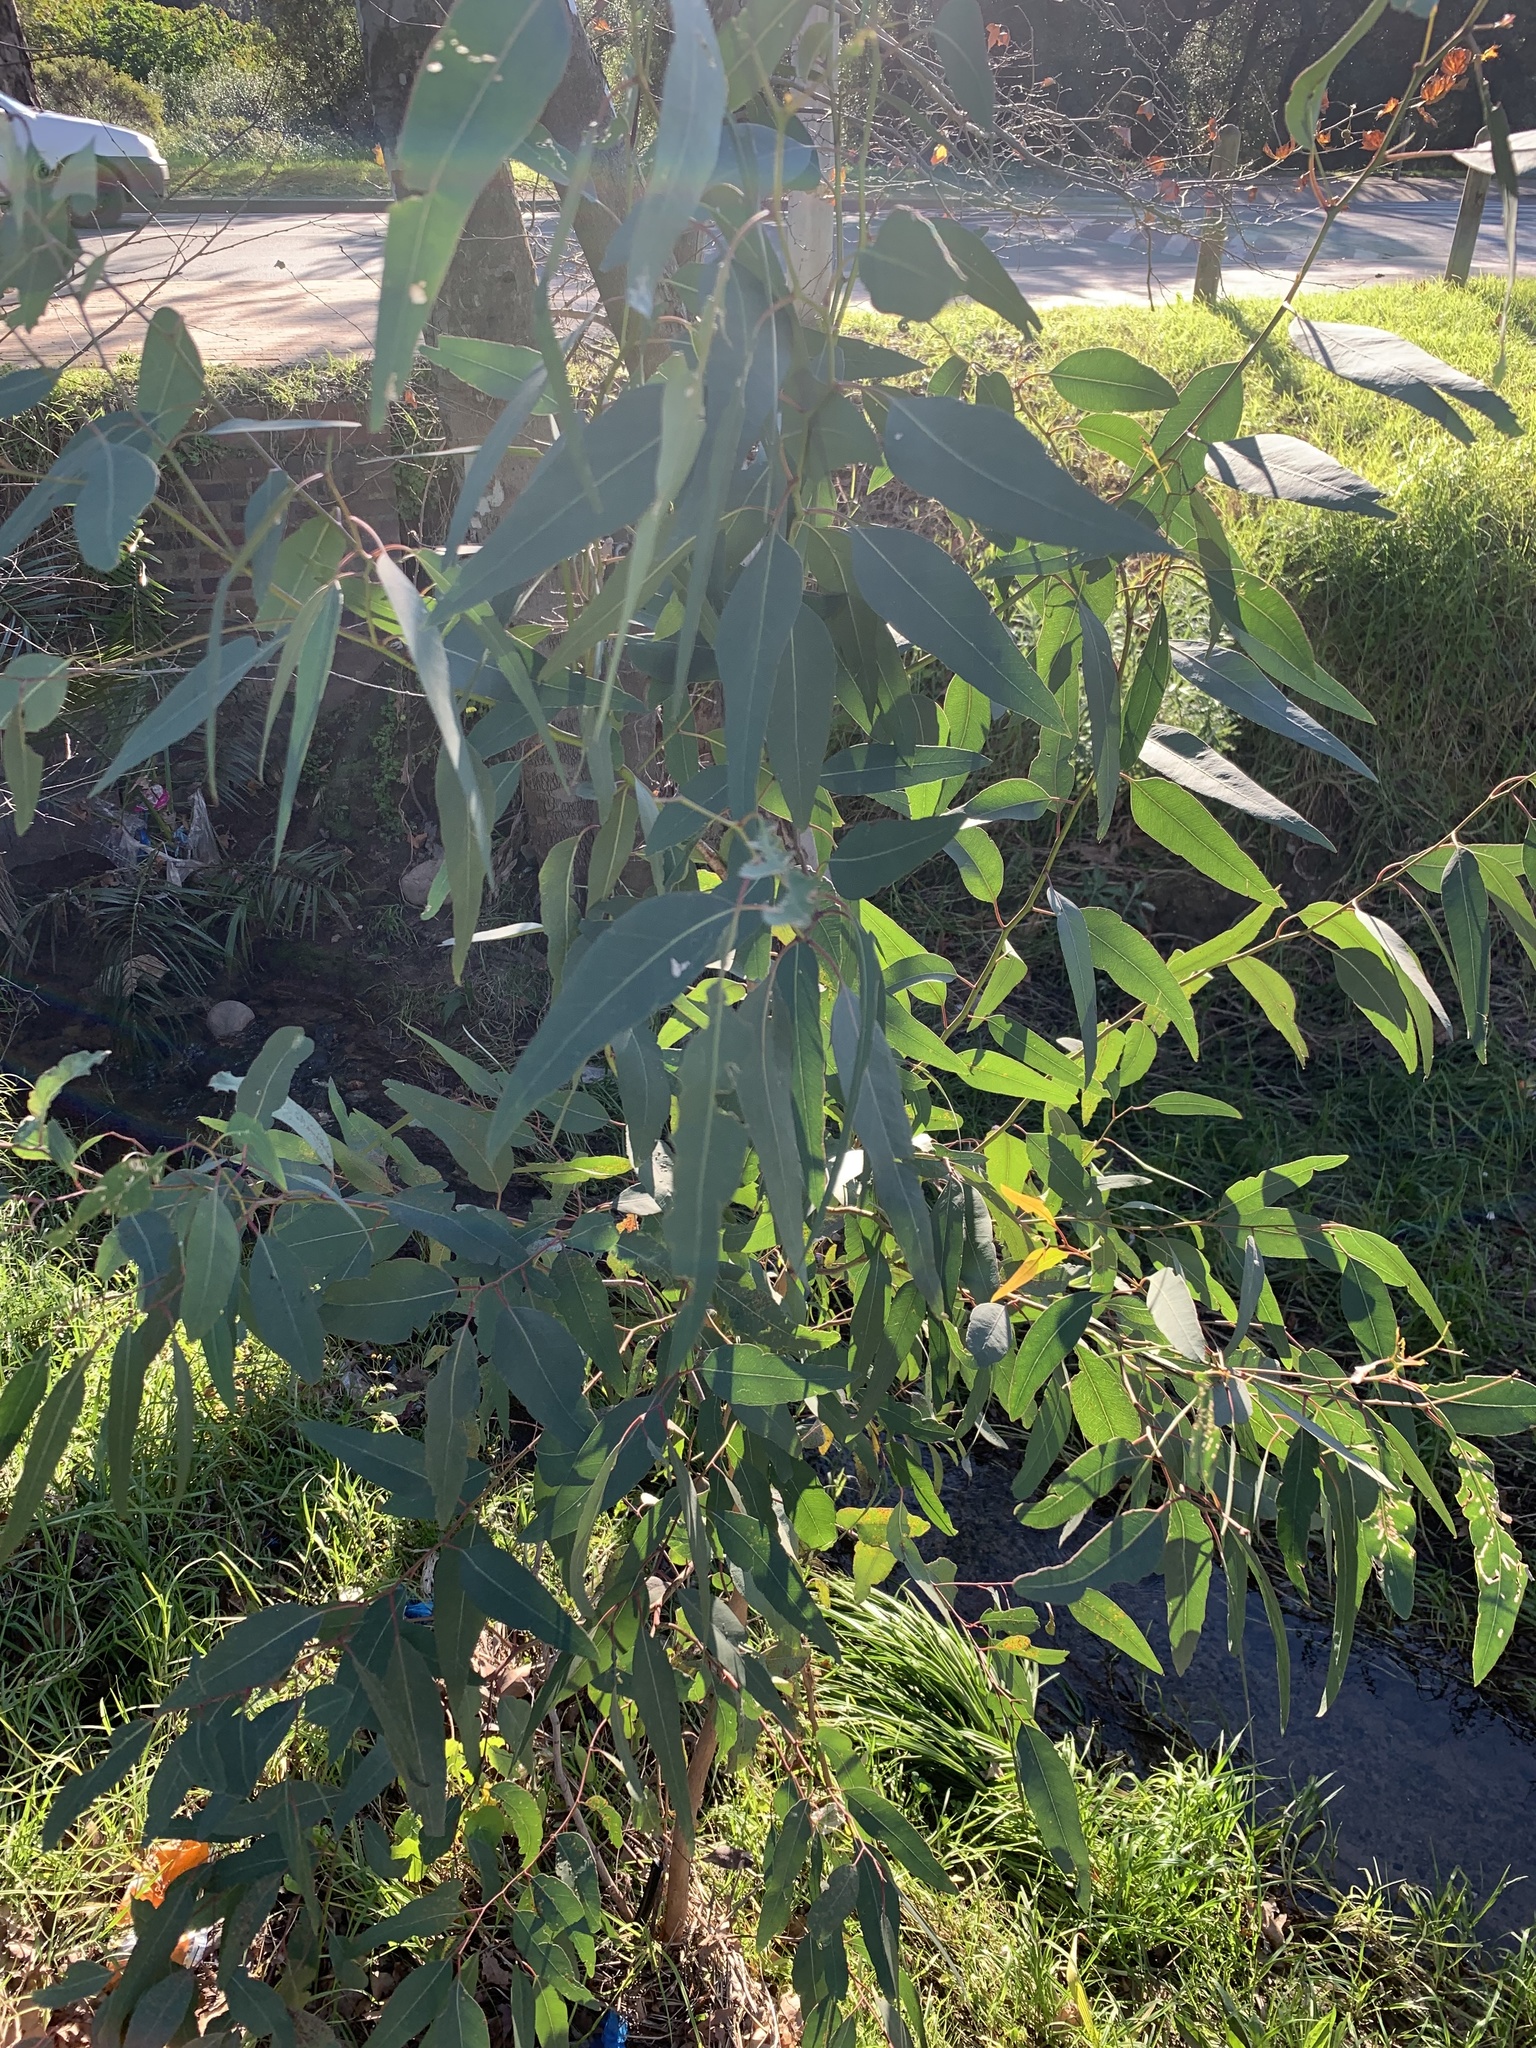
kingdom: Plantae
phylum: Tracheophyta
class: Magnoliopsida
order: Myrtales
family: Myrtaceae
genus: Eucalyptus
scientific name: Eucalyptus camaldulensis
